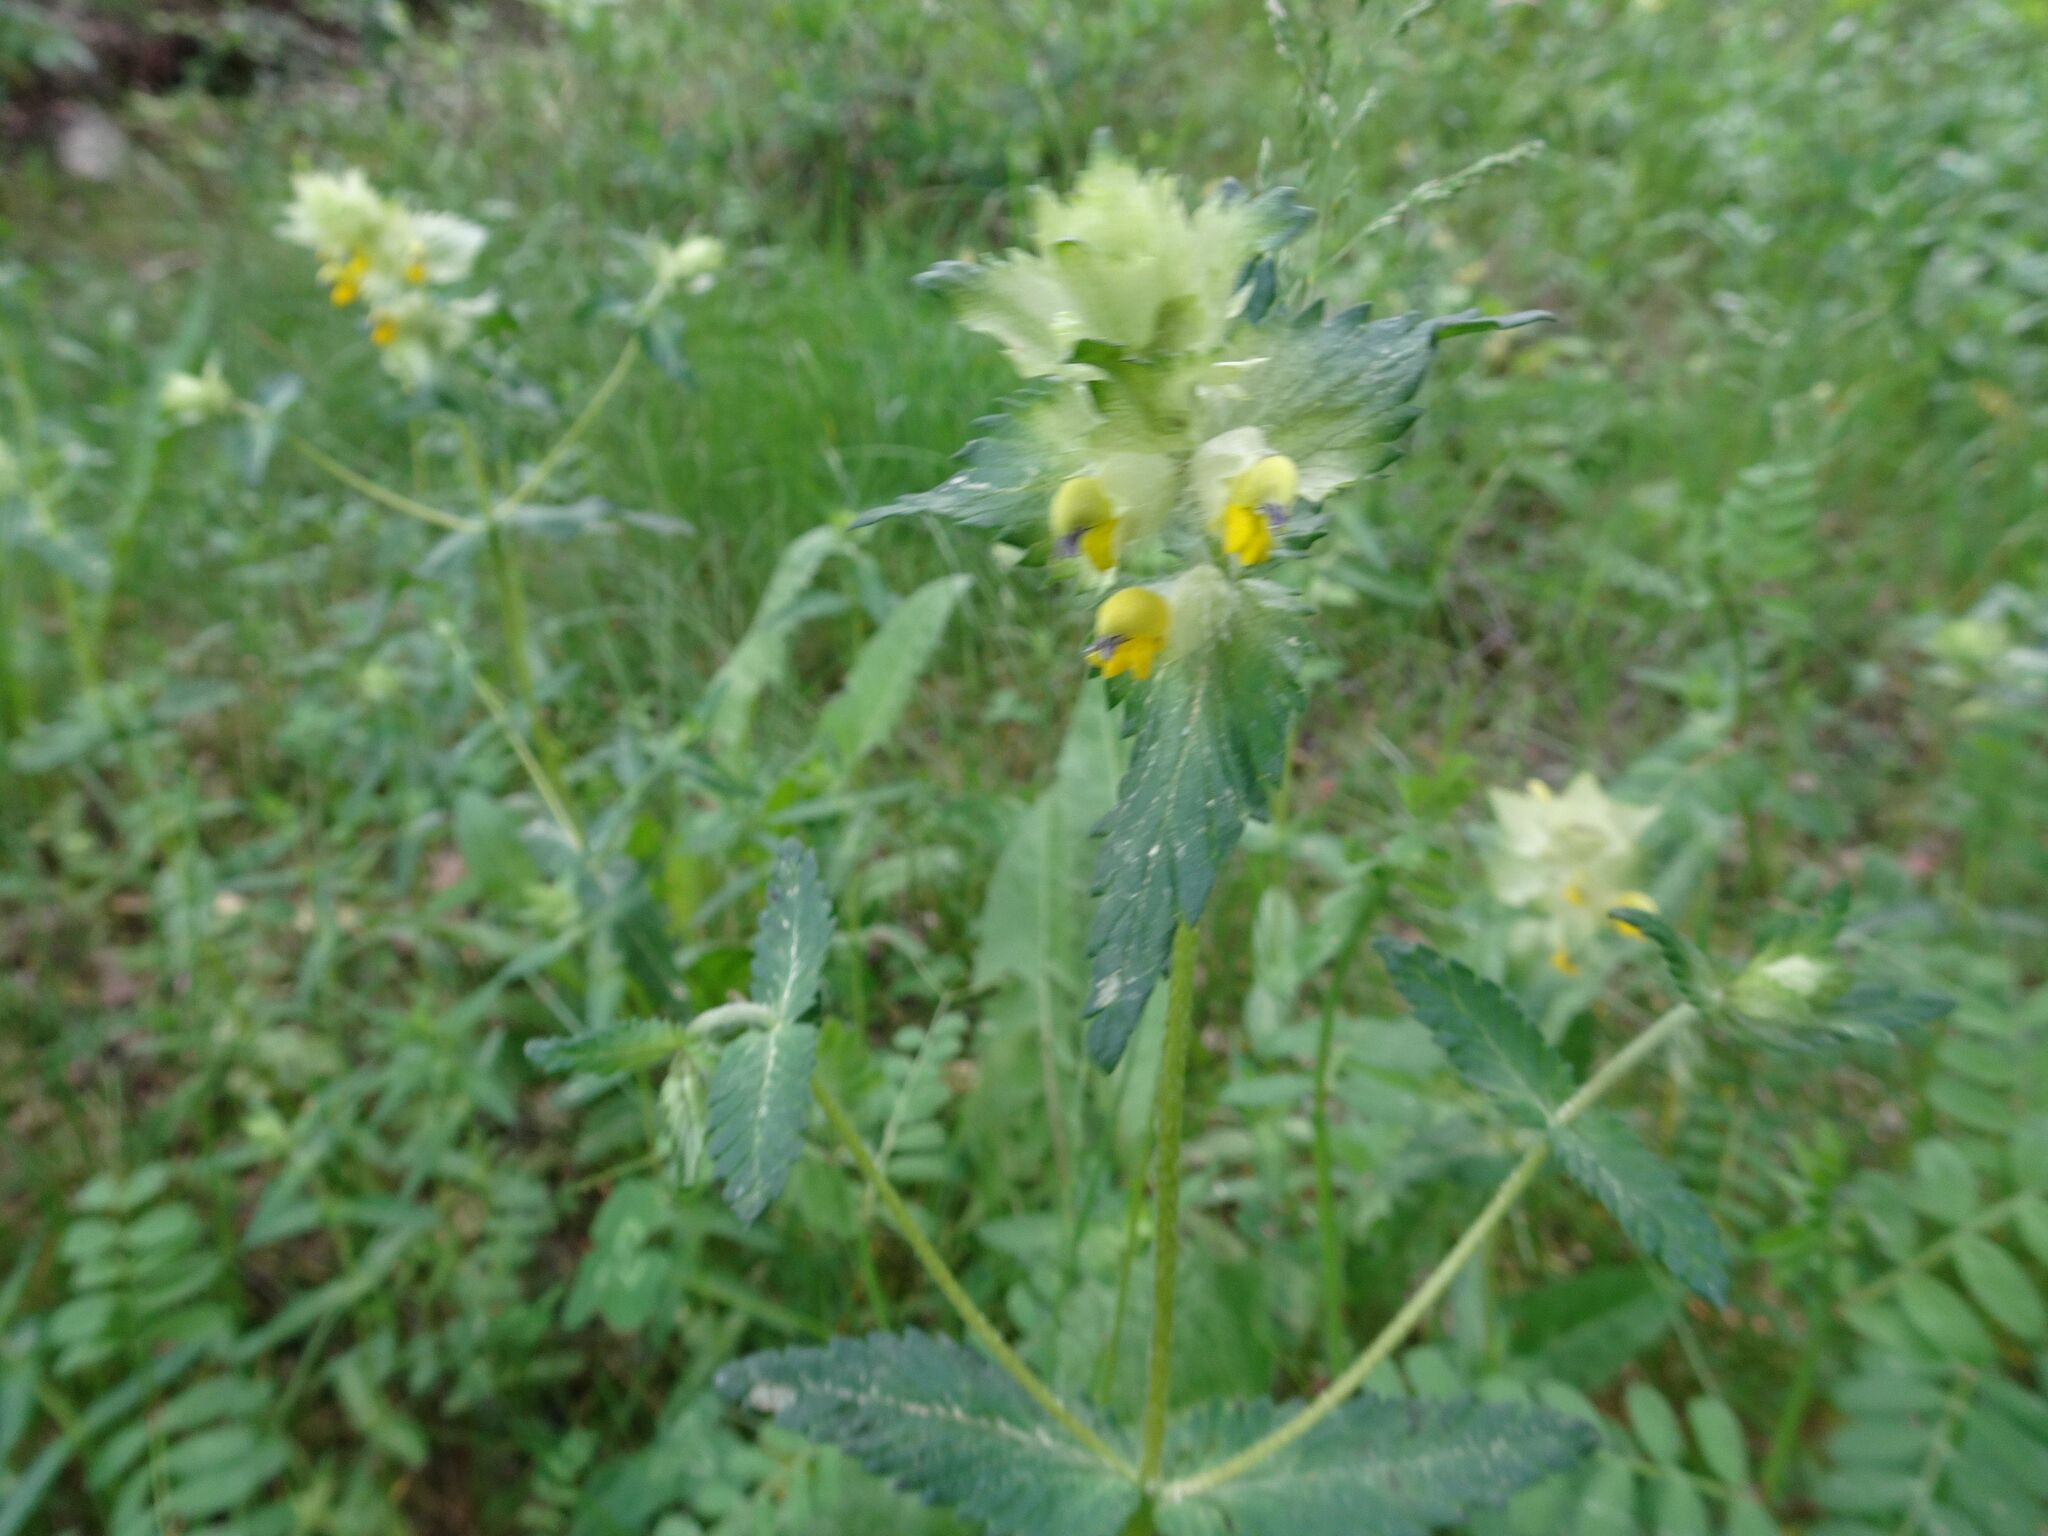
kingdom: Plantae
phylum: Tracheophyta
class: Magnoliopsida
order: Lamiales
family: Orobanchaceae
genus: Rhinanthus
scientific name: Rhinanthus alectorolophus
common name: Greater yellow-rattle
